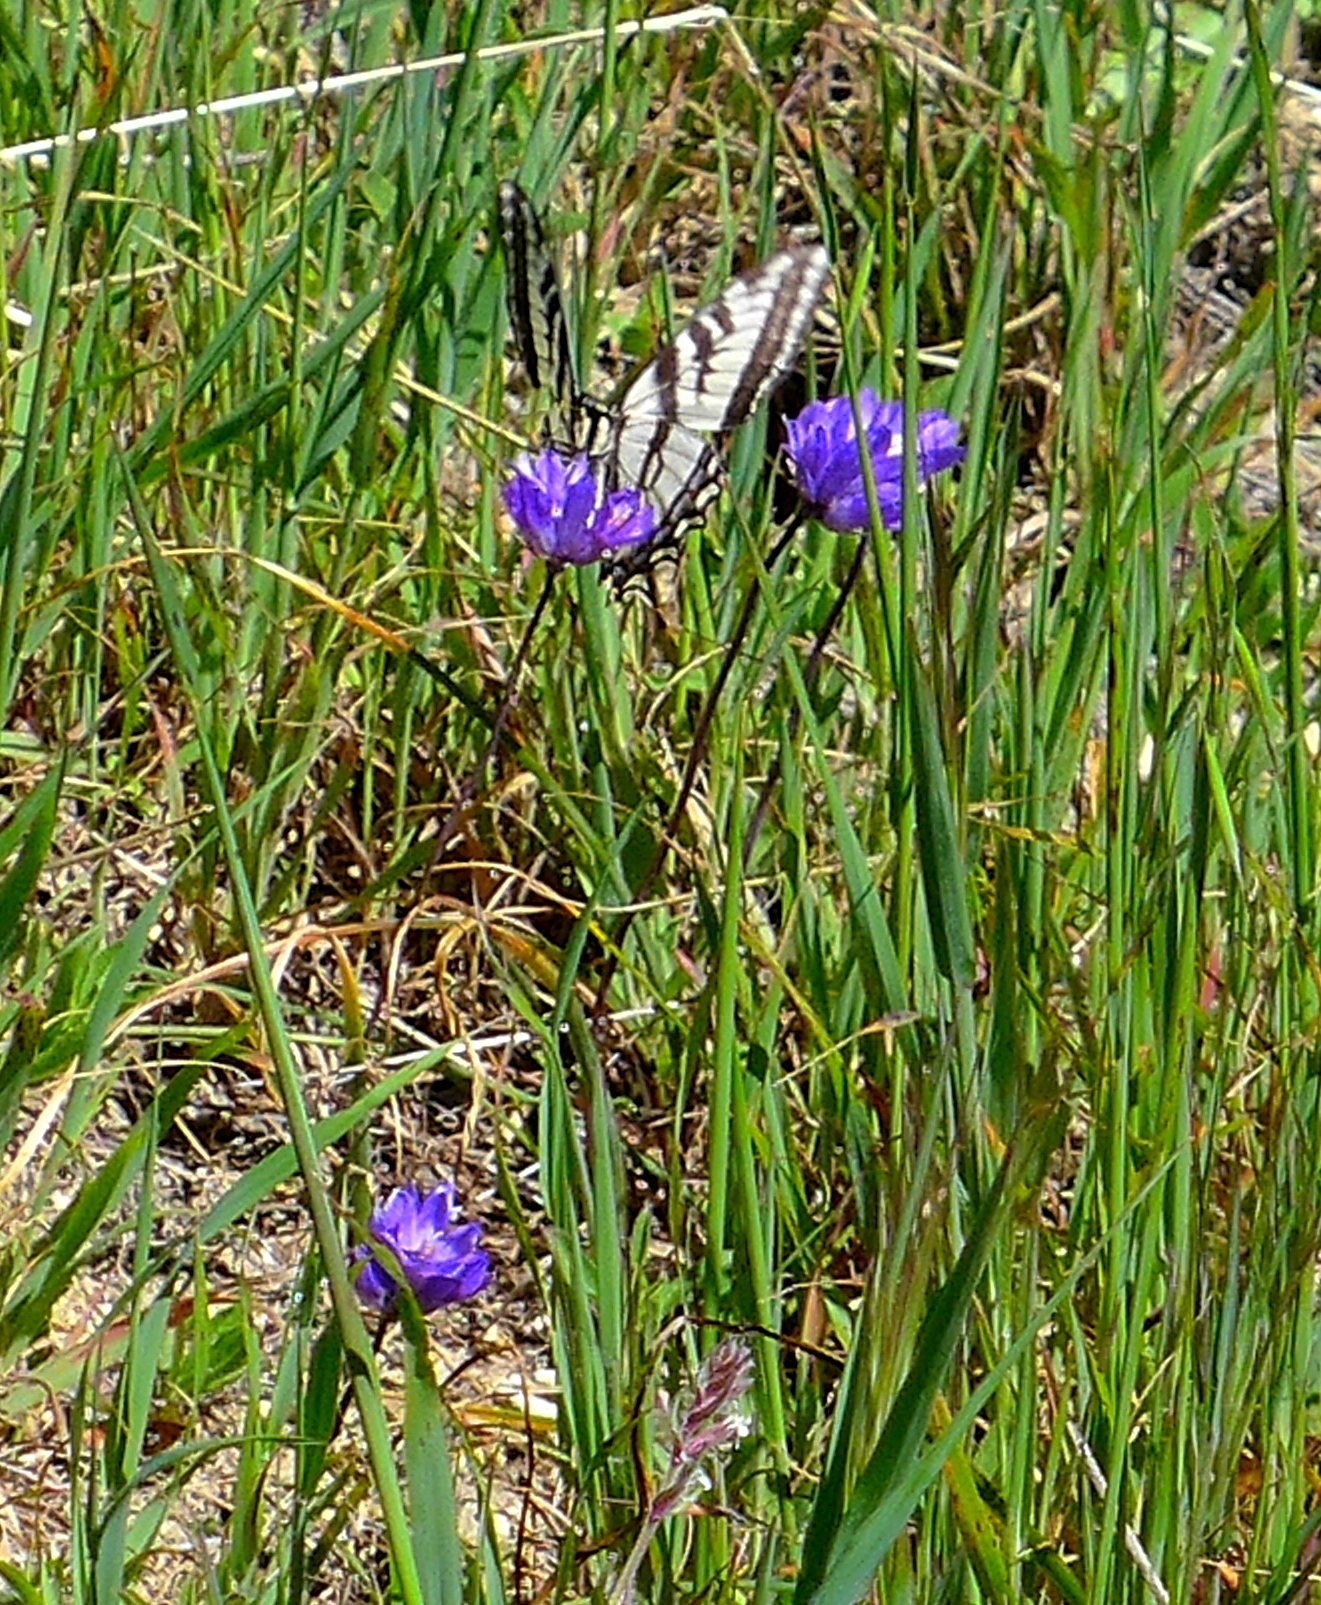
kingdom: Animalia
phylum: Arthropoda
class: Insecta
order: Lepidoptera
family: Papilionidae
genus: Papilio
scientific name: Papilio eurymedon
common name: Pale tiger swallowtail
